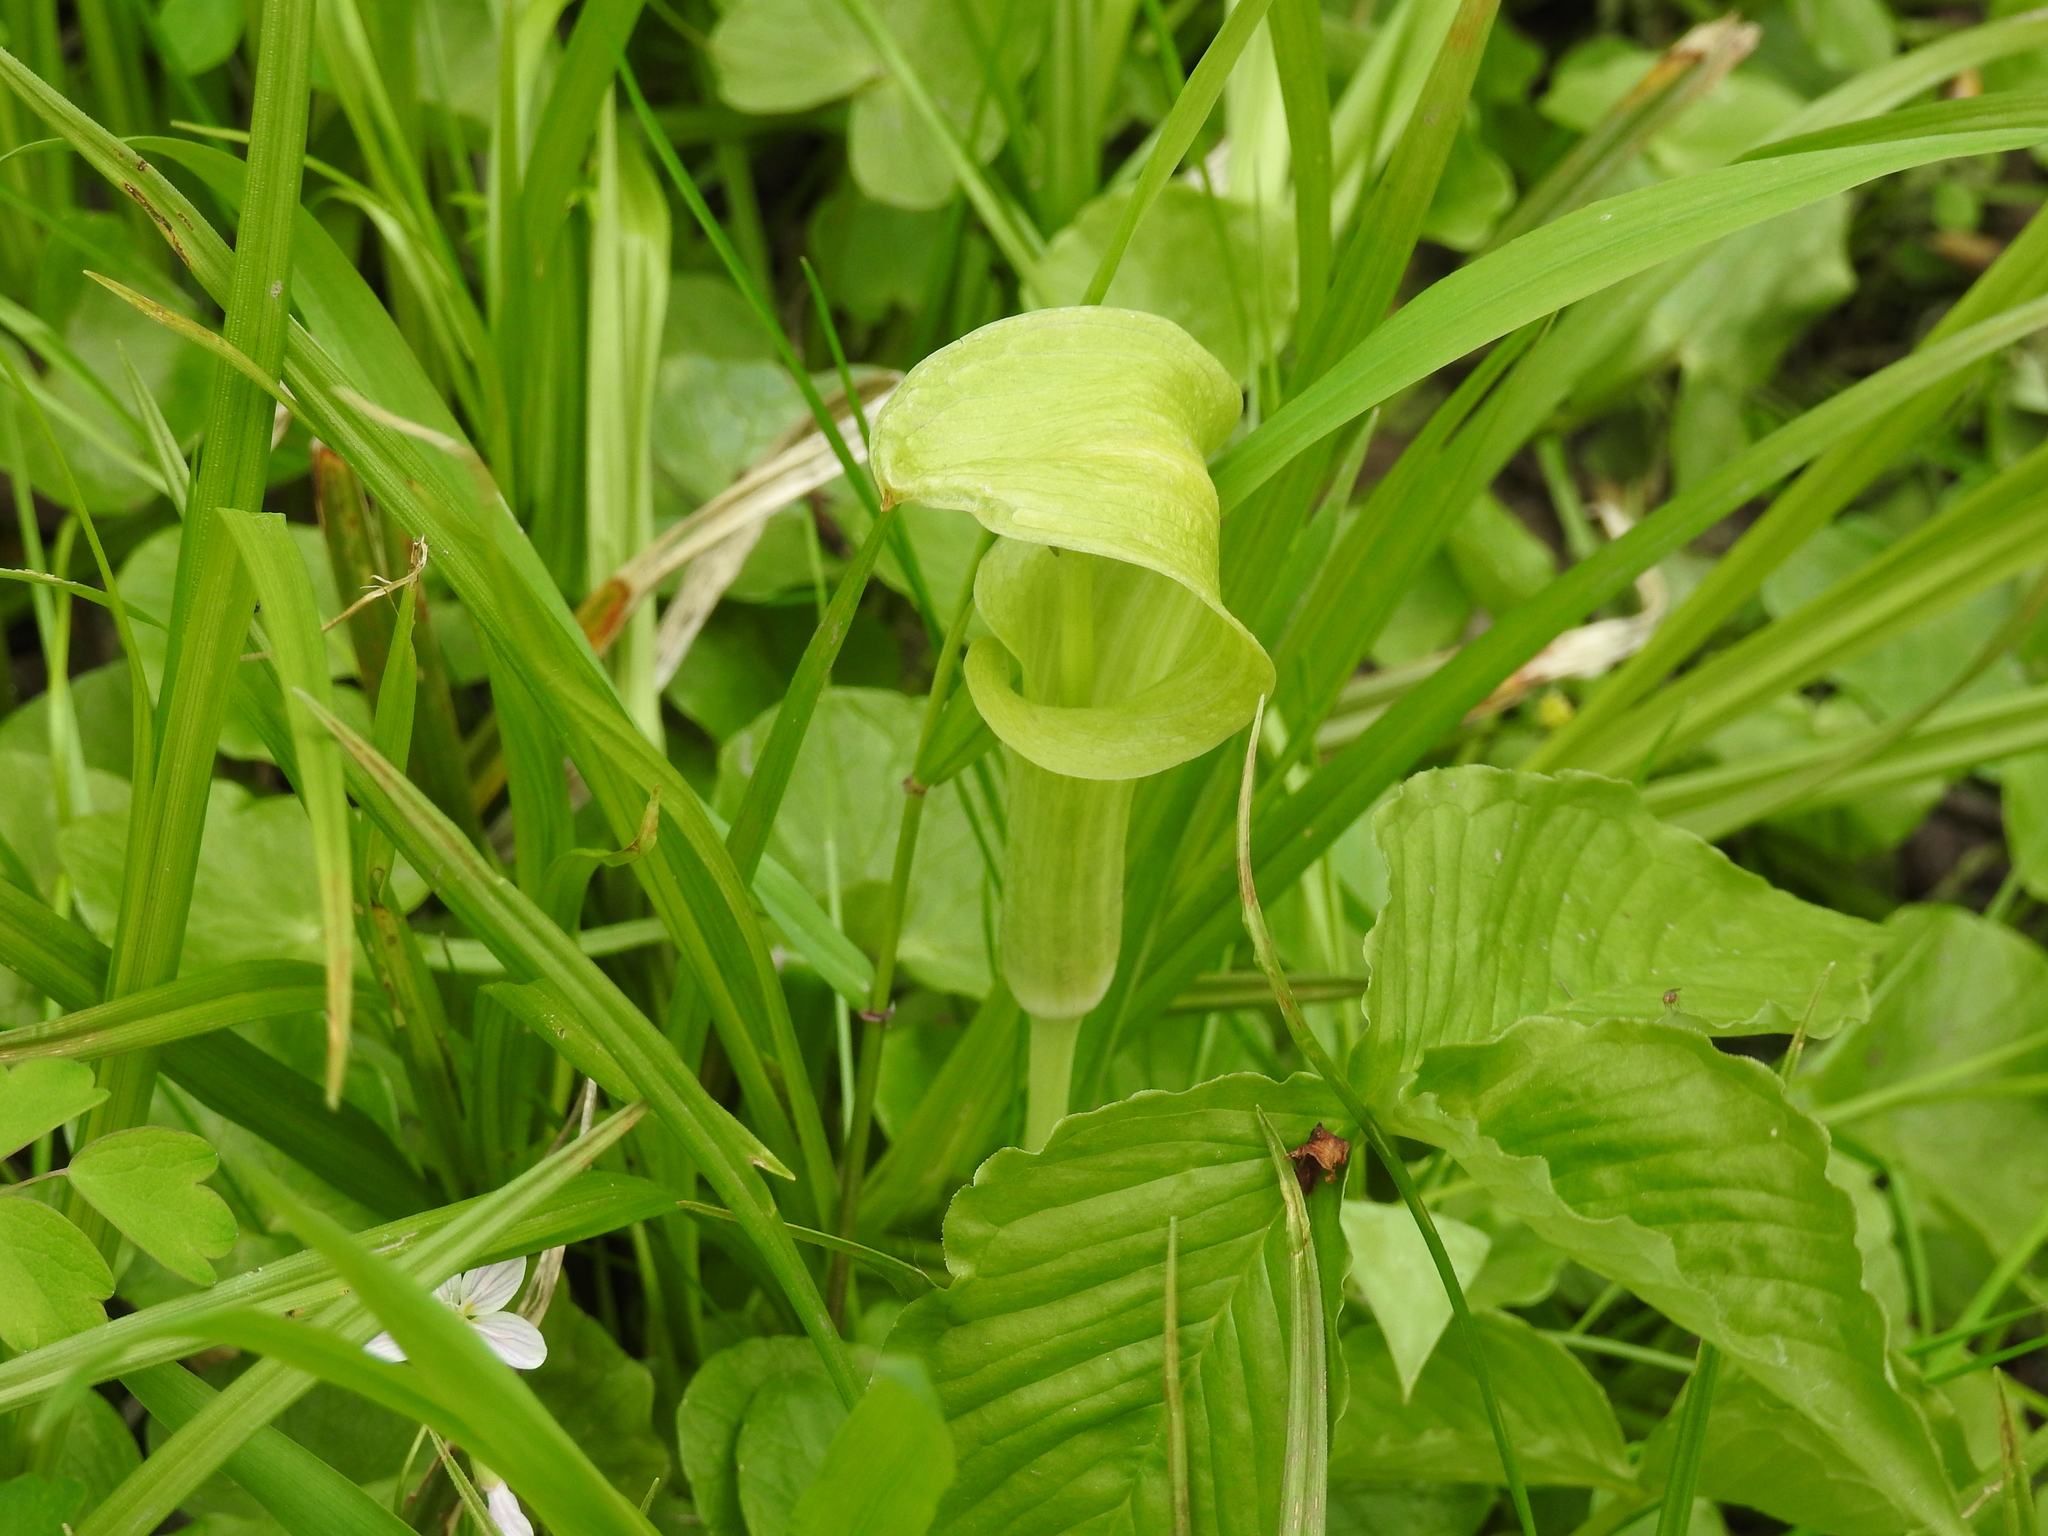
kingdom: Plantae
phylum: Tracheophyta
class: Liliopsida
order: Alismatales
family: Araceae
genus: Arisaema
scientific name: Arisaema triphyllum
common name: Jack-in-the-pulpit
